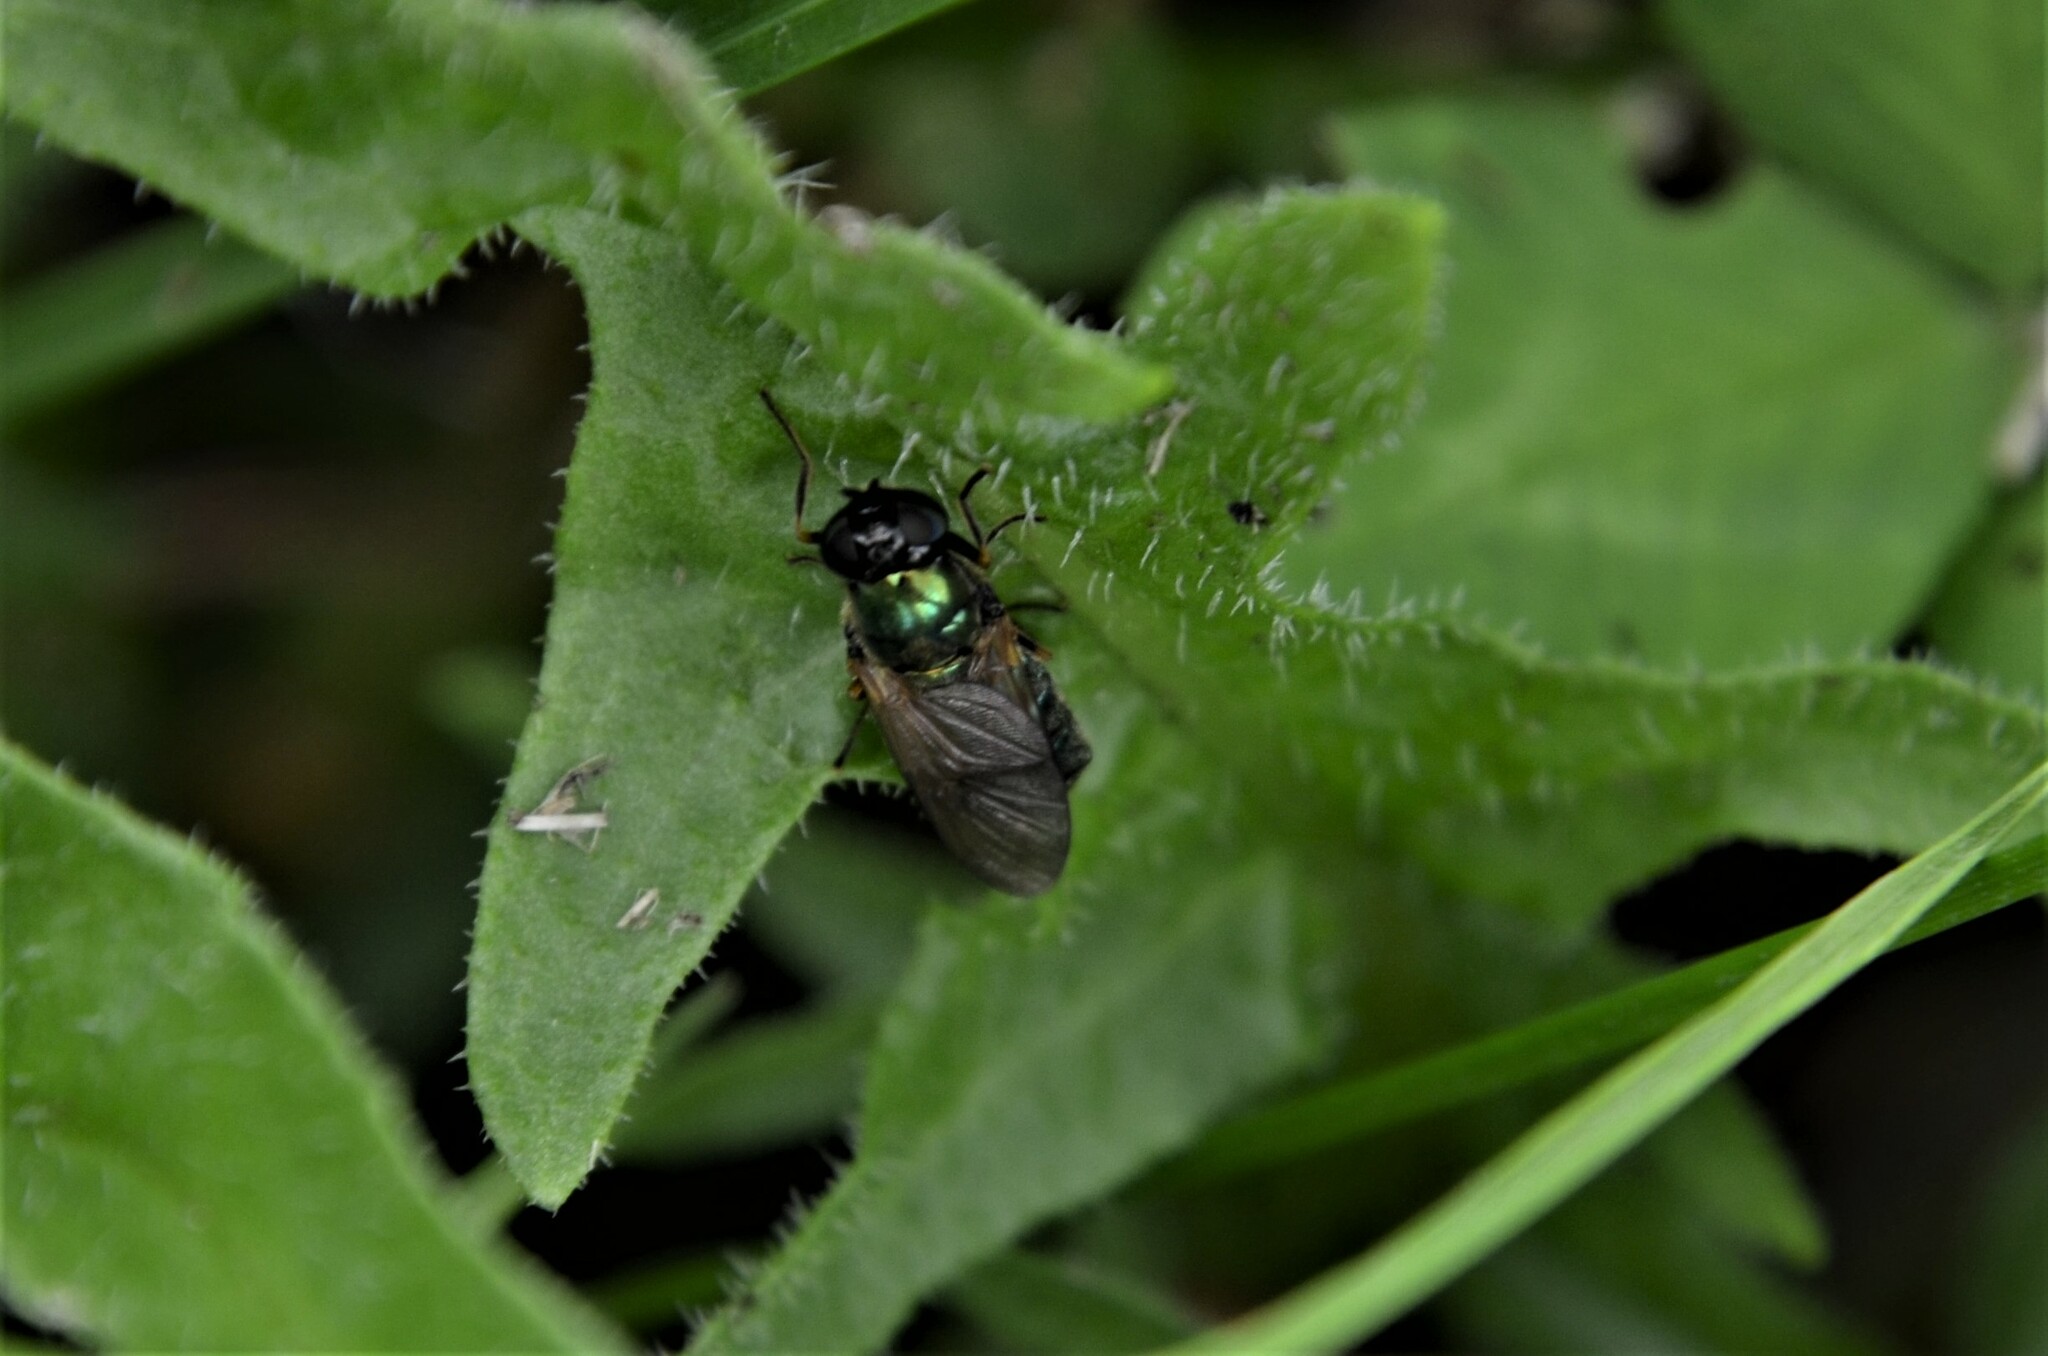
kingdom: Animalia
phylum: Arthropoda
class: Insecta
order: Diptera
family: Stratiomyidae
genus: Chloromyia
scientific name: Chloromyia formosa
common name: Soldier fly
